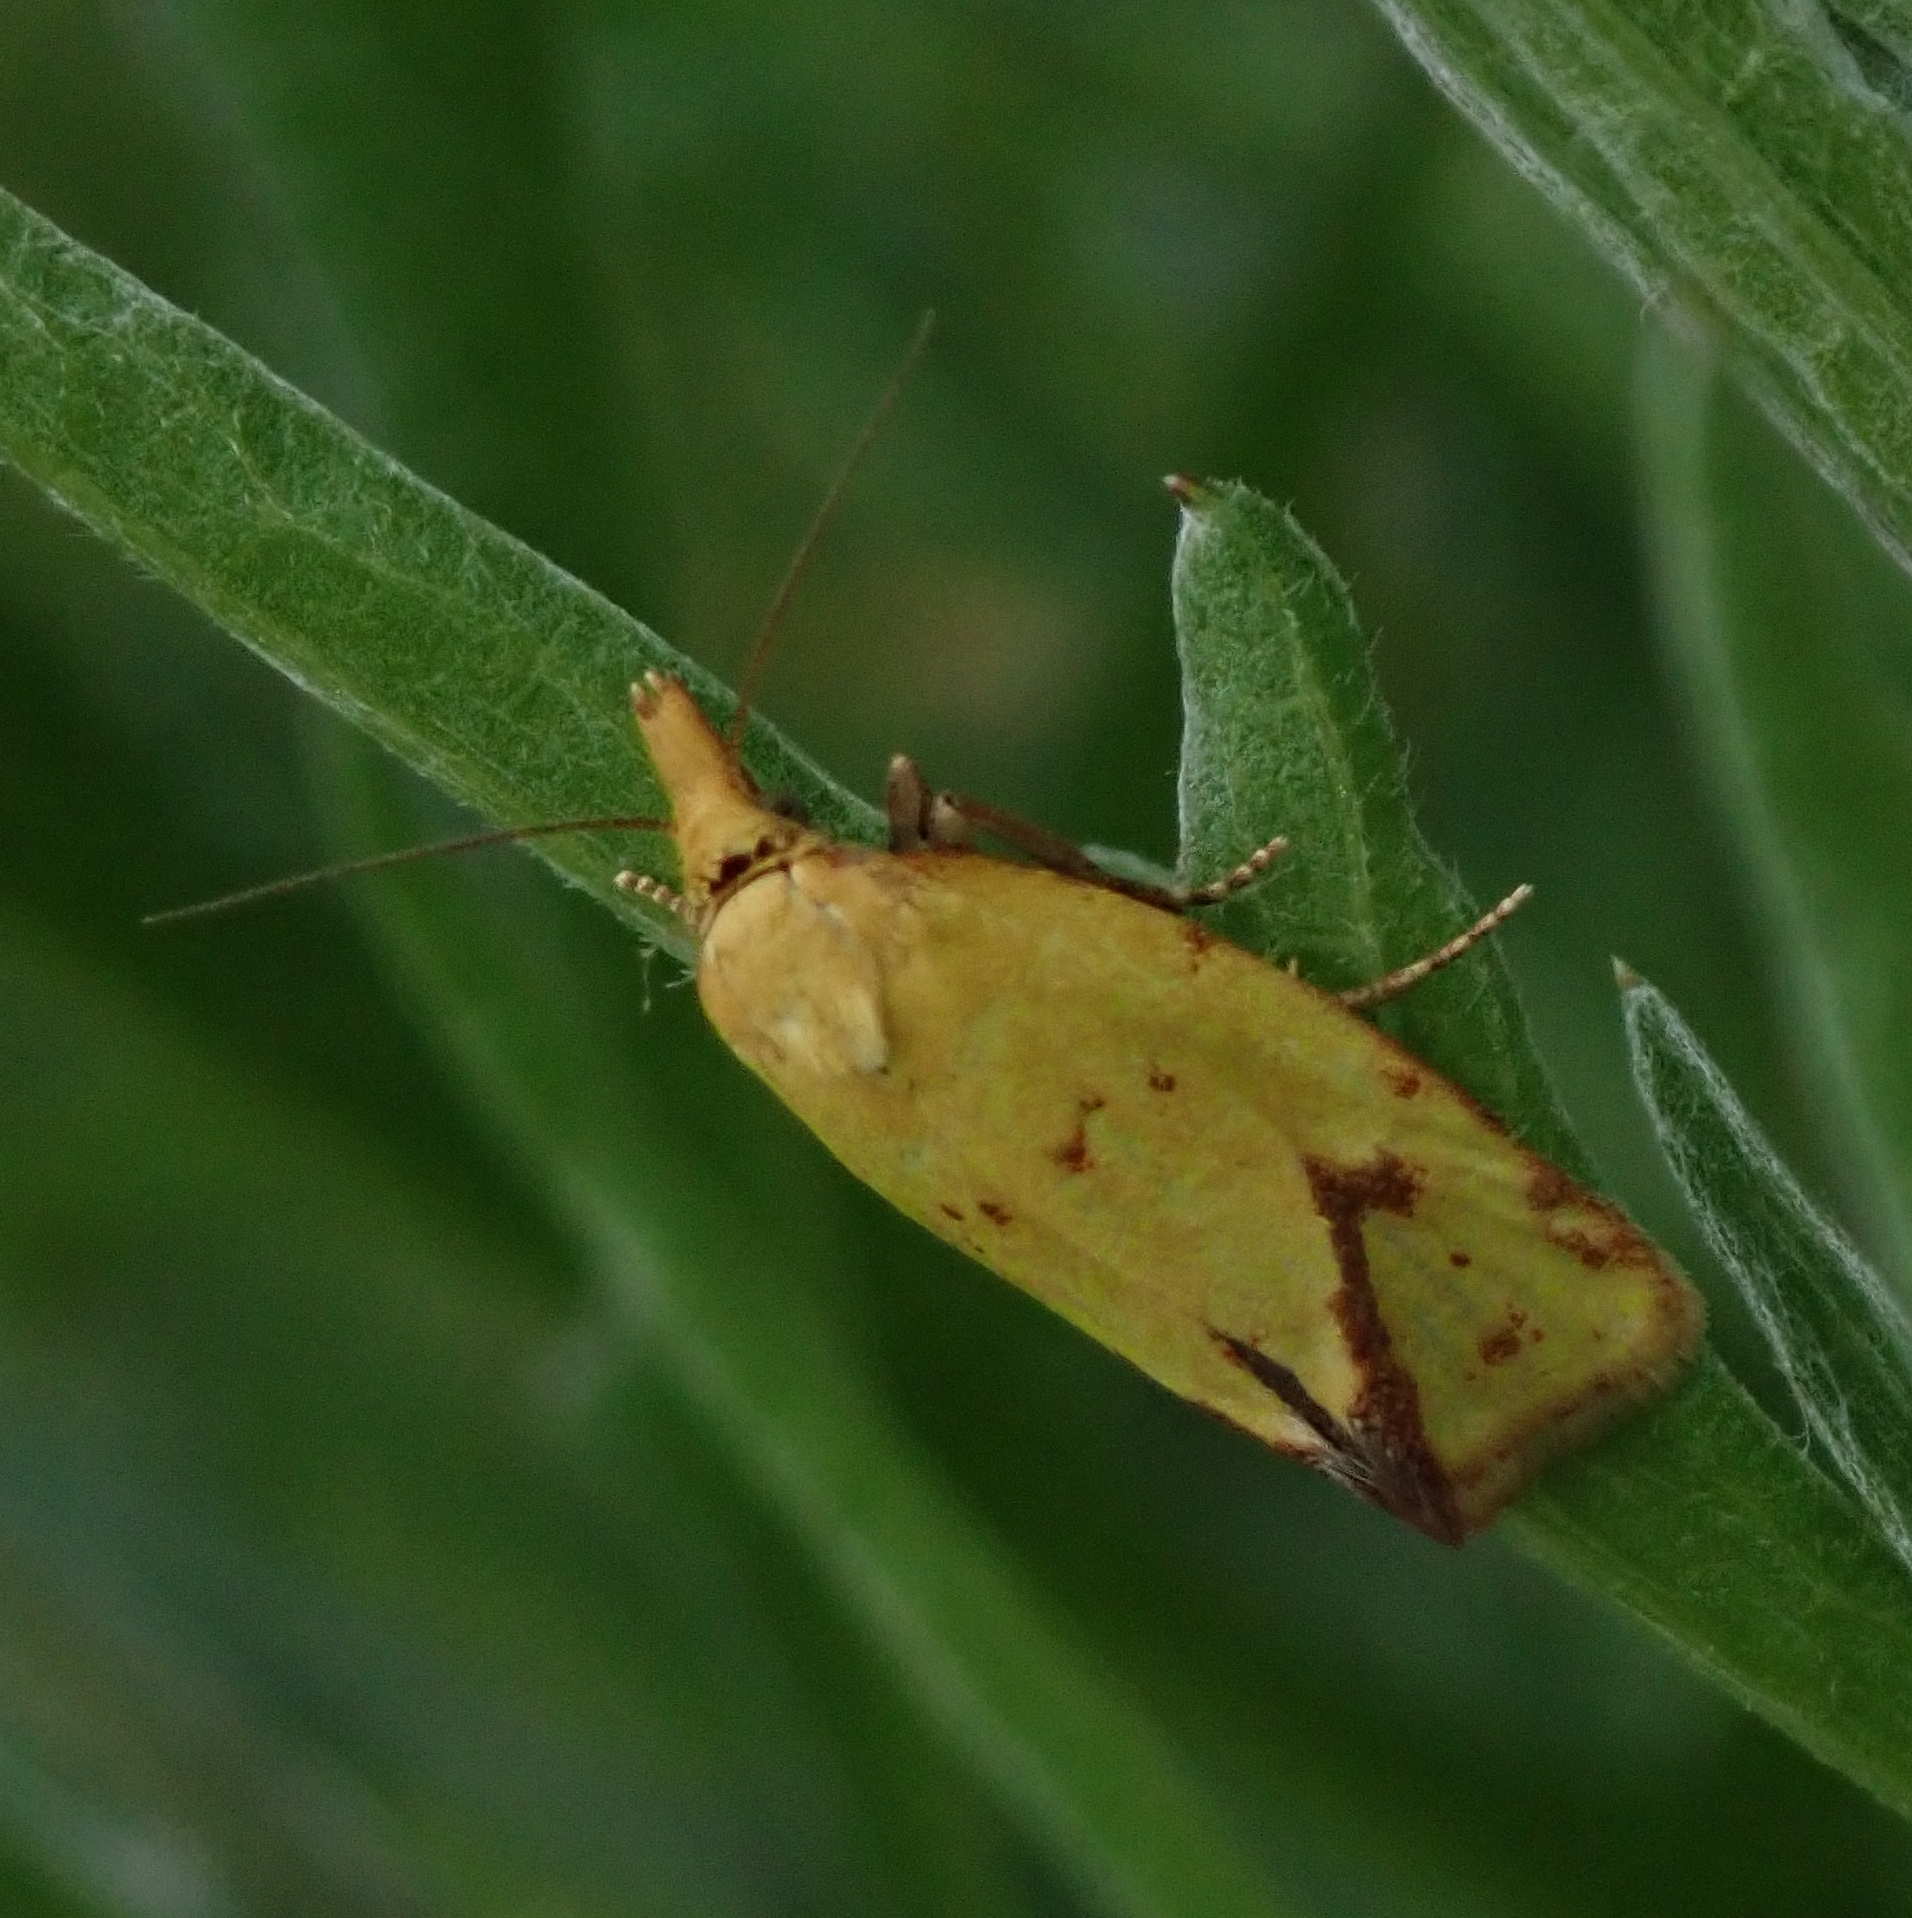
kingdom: Animalia
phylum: Arthropoda
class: Insecta
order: Lepidoptera
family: Tortricidae
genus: Agapeta
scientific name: Agapeta hamana
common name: Common yellow conch
